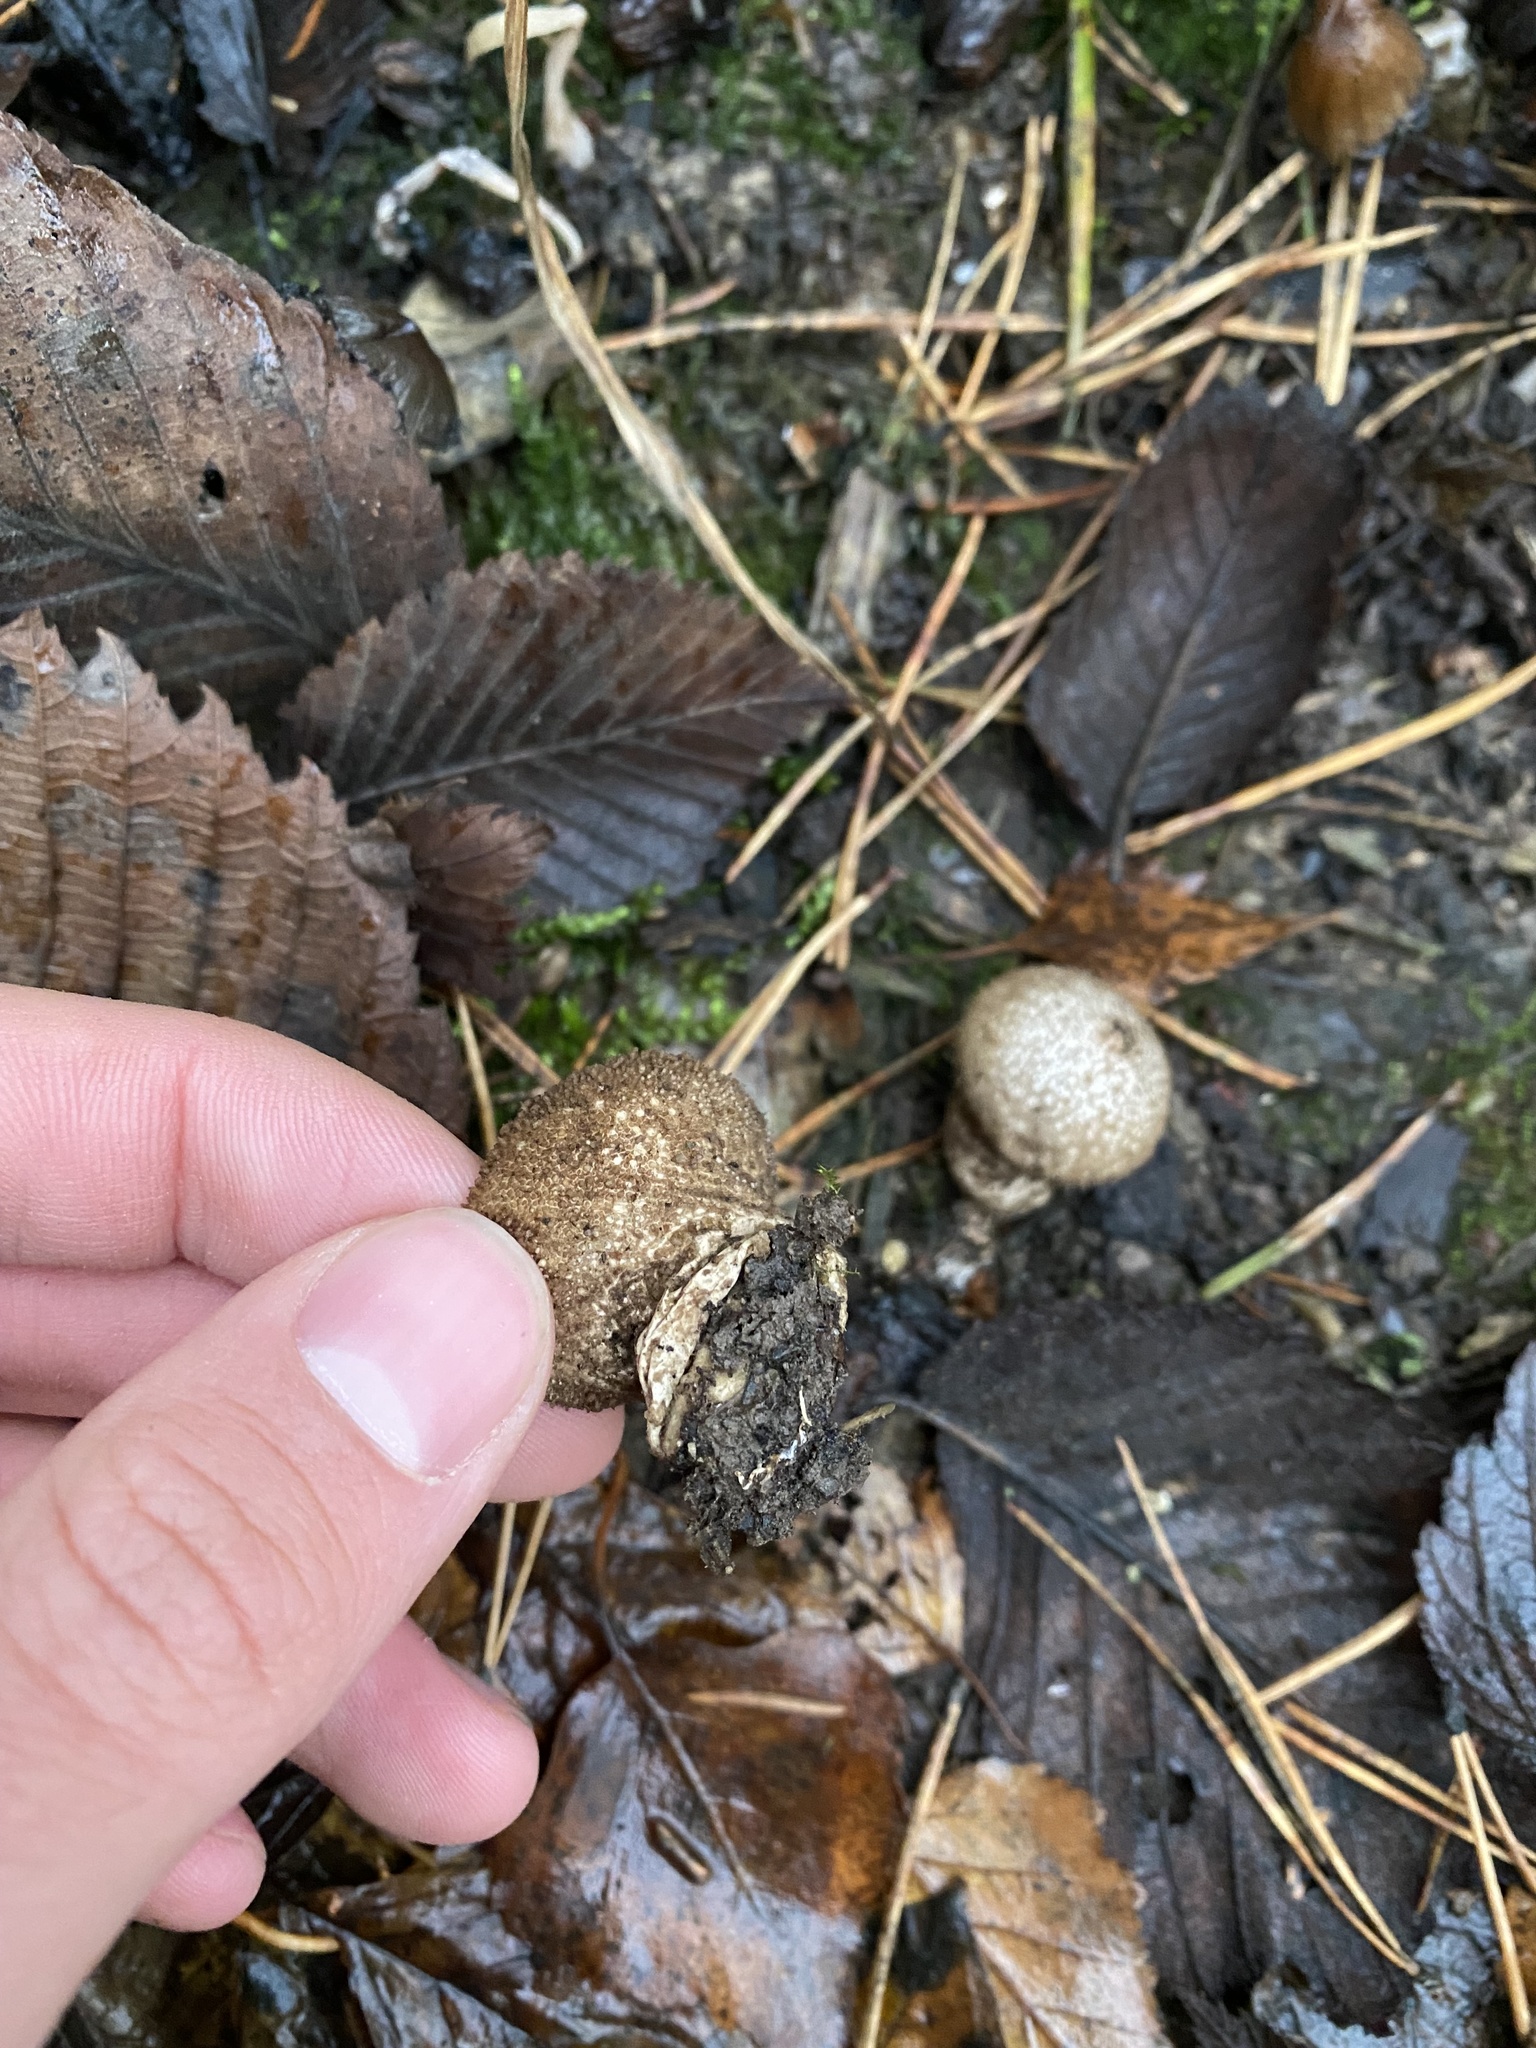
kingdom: Fungi
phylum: Basidiomycota
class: Agaricomycetes
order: Agaricales
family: Lycoperdaceae
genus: Lycoperdon
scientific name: Lycoperdon perlatum
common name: Common puffball
